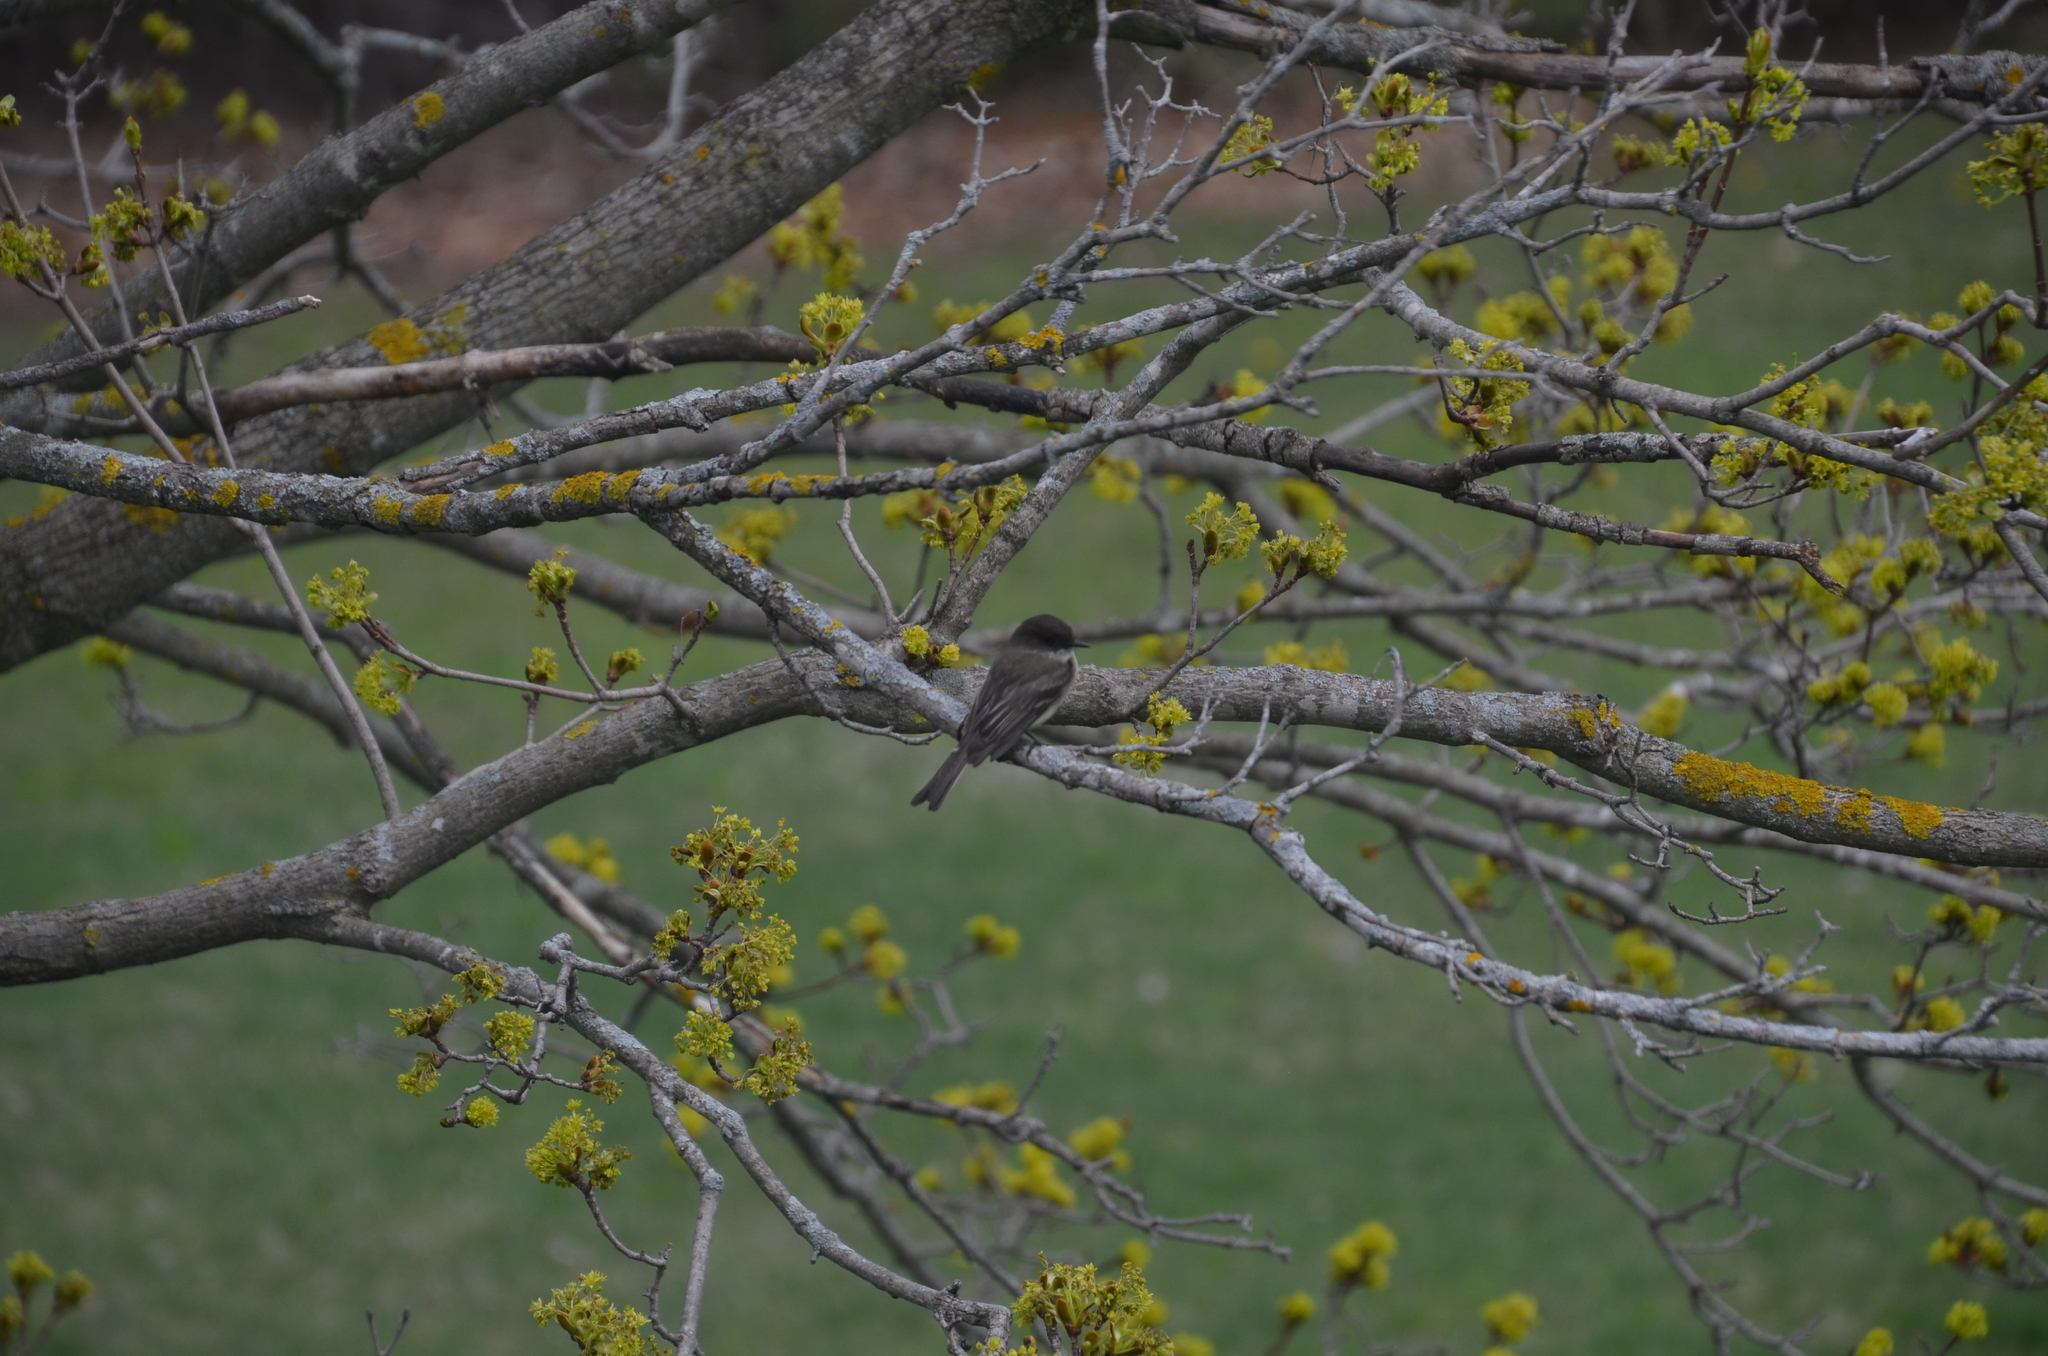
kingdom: Animalia
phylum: Chordata
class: Aves
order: Passeriformes
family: Tyrannidae
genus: Sayornis
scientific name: Sayornis phoebe
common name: Eastern phoebe
